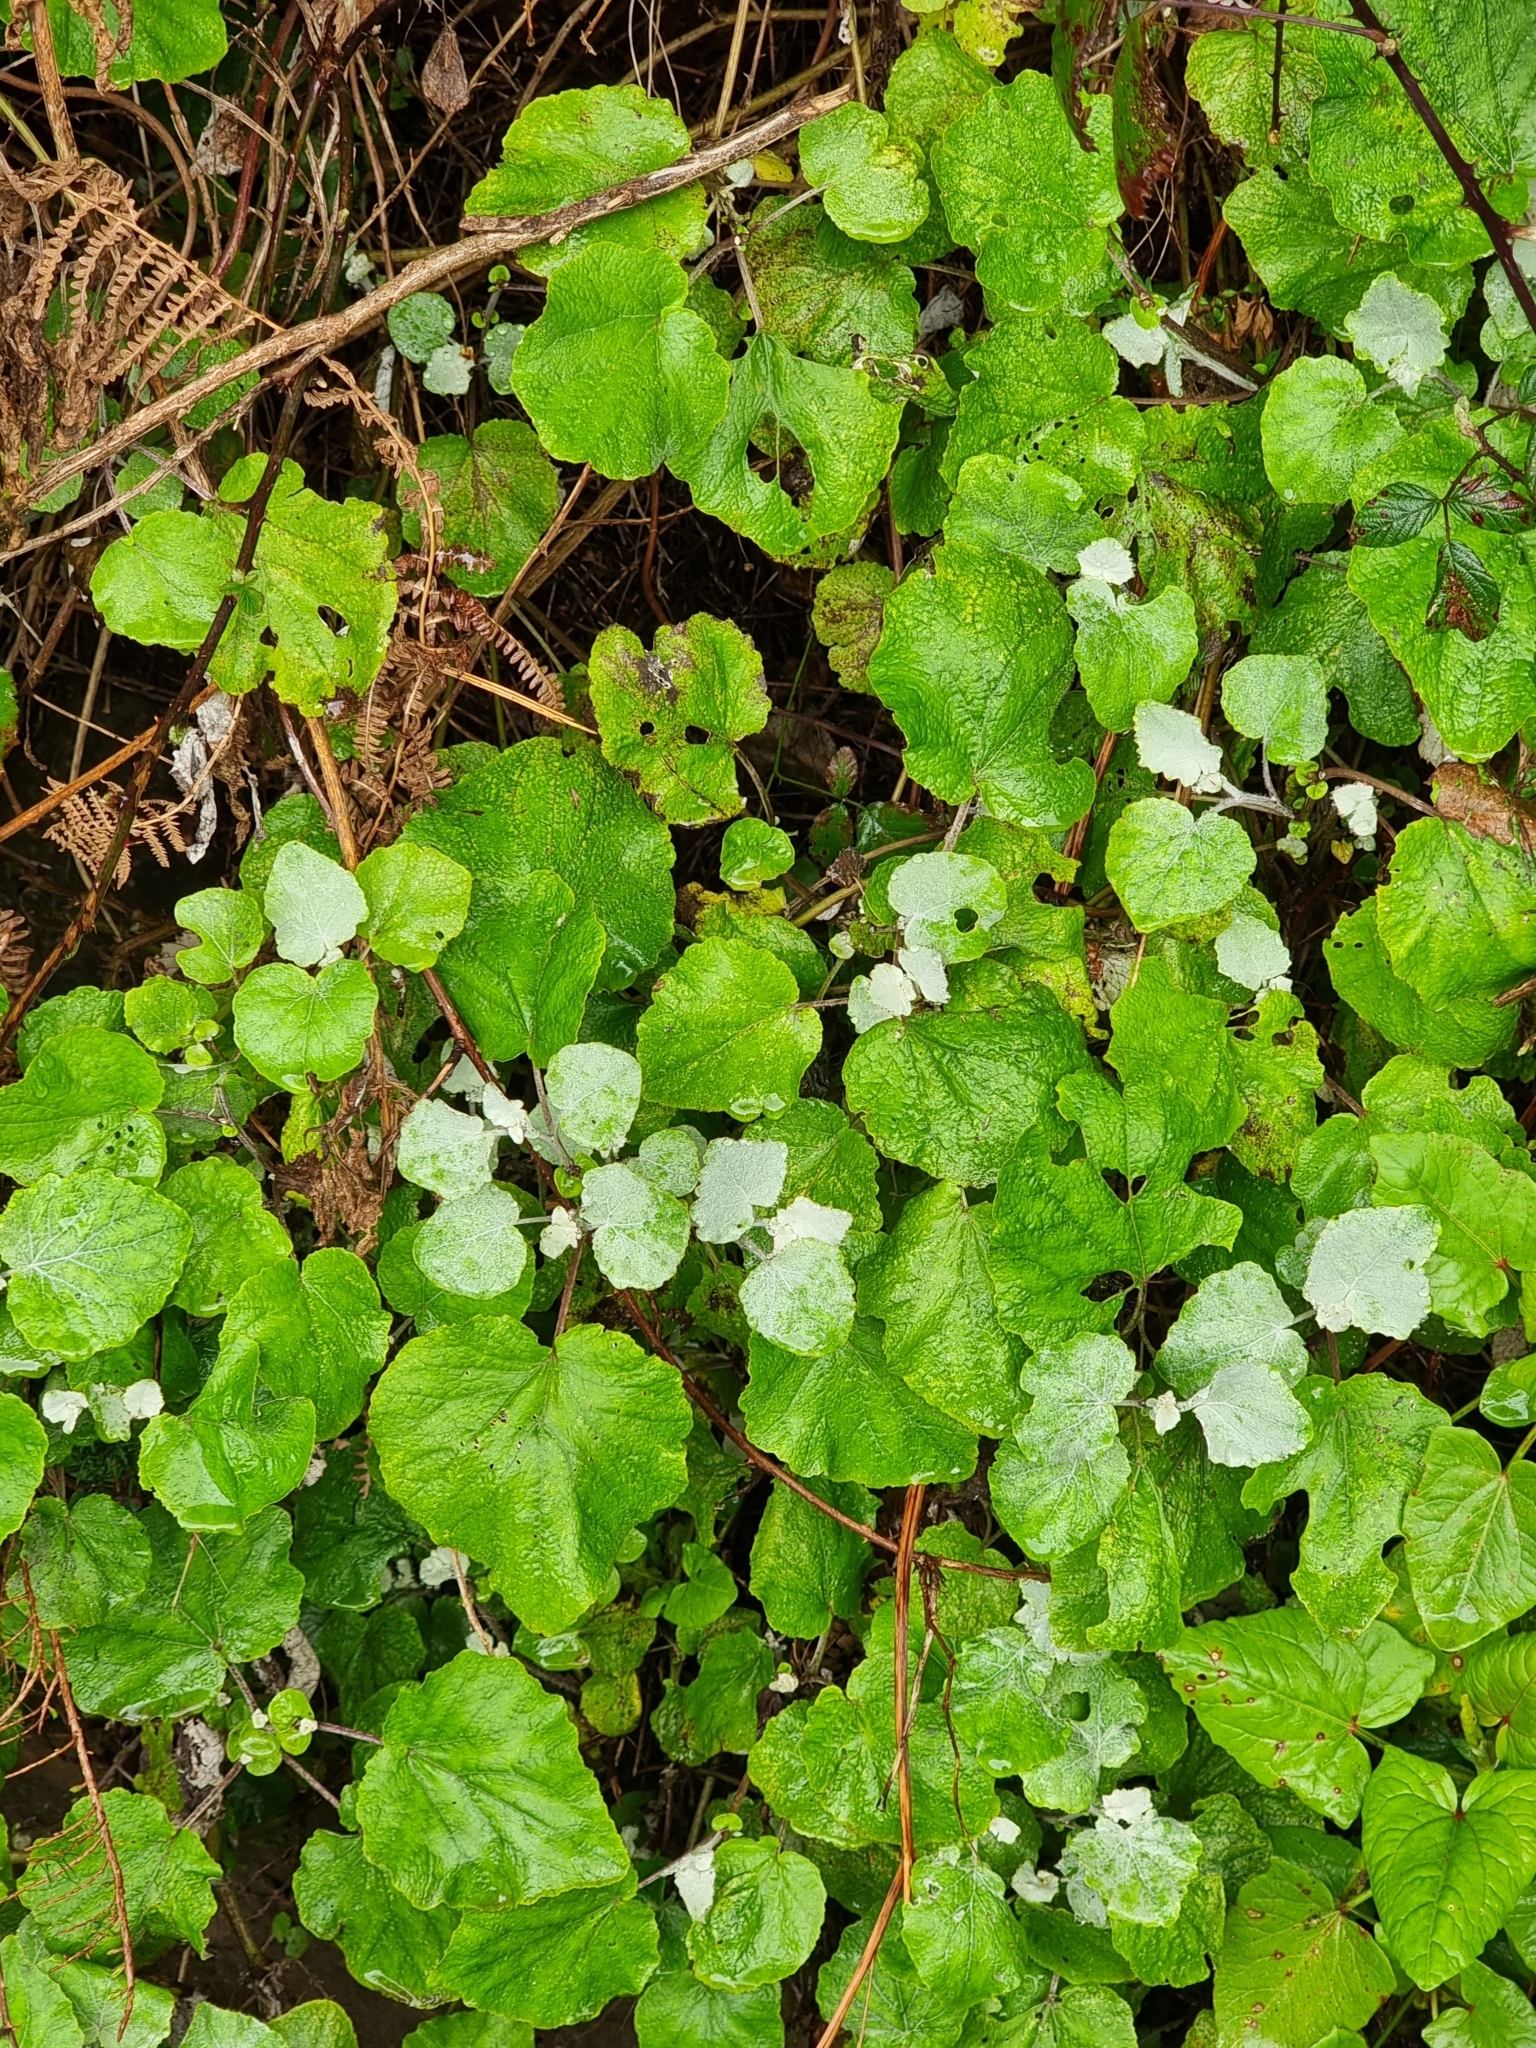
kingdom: Plantae
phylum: Tracheophyta
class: Magnoliopsida
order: Asterales
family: Asteraceae
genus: Pericallis
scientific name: Pericallis aurita
